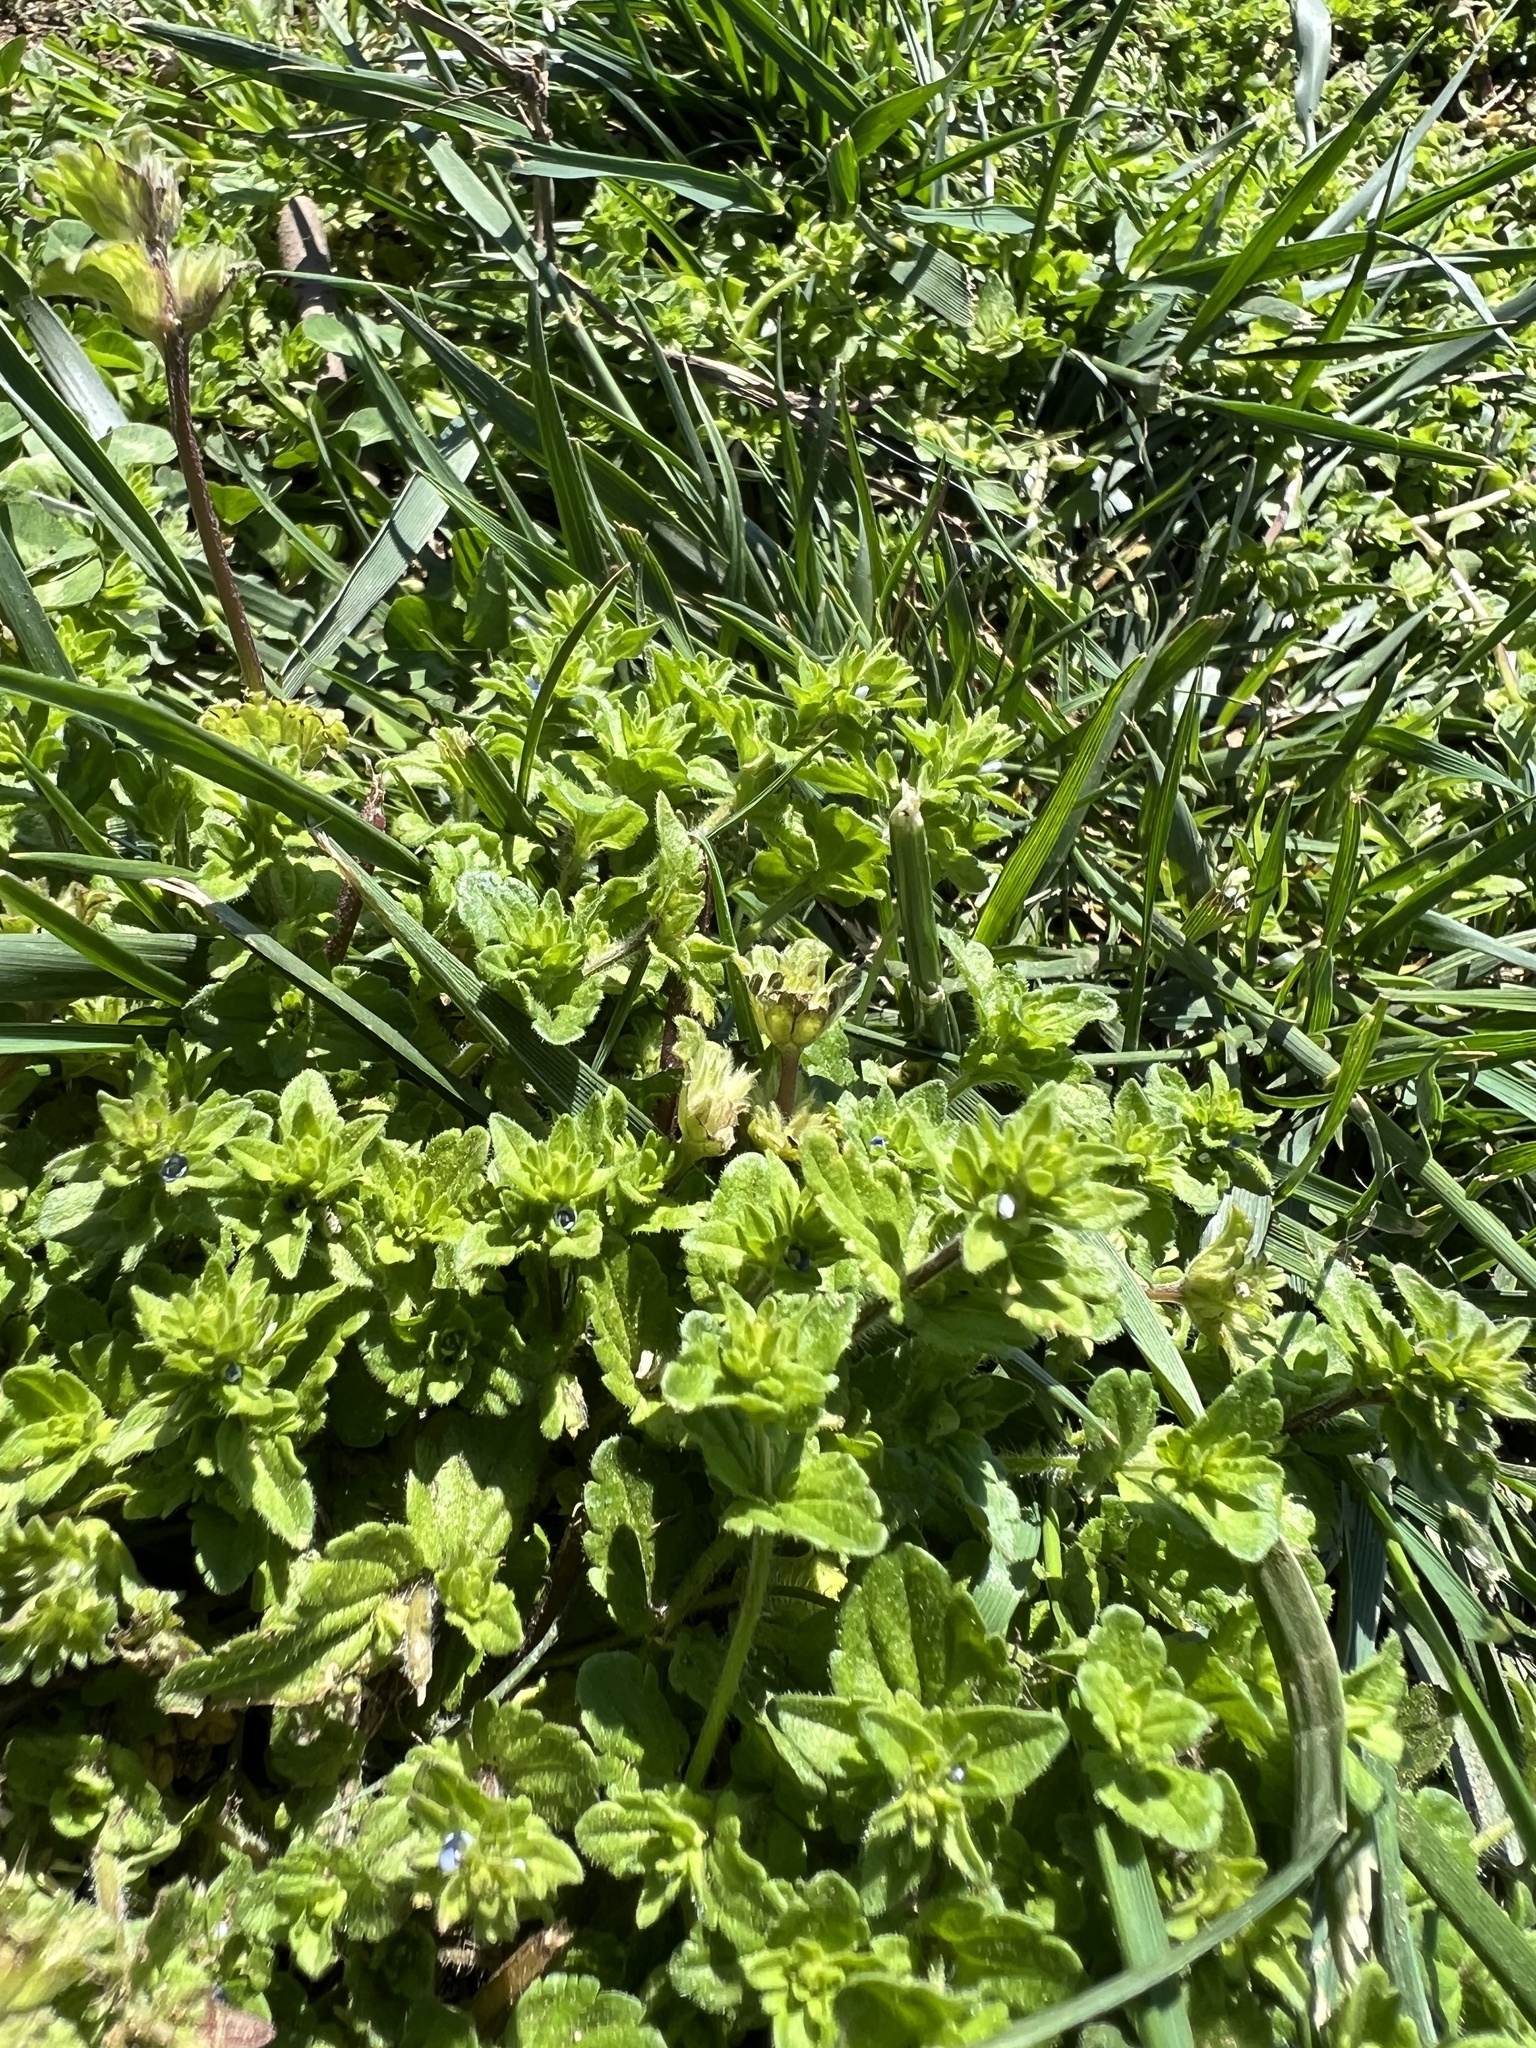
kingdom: Plantae
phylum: Tracheophyta
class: Magnoliopsida
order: Lamiales
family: Plantaginaceae
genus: Veronica
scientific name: Veronica arvensis
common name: Corn speedwell
